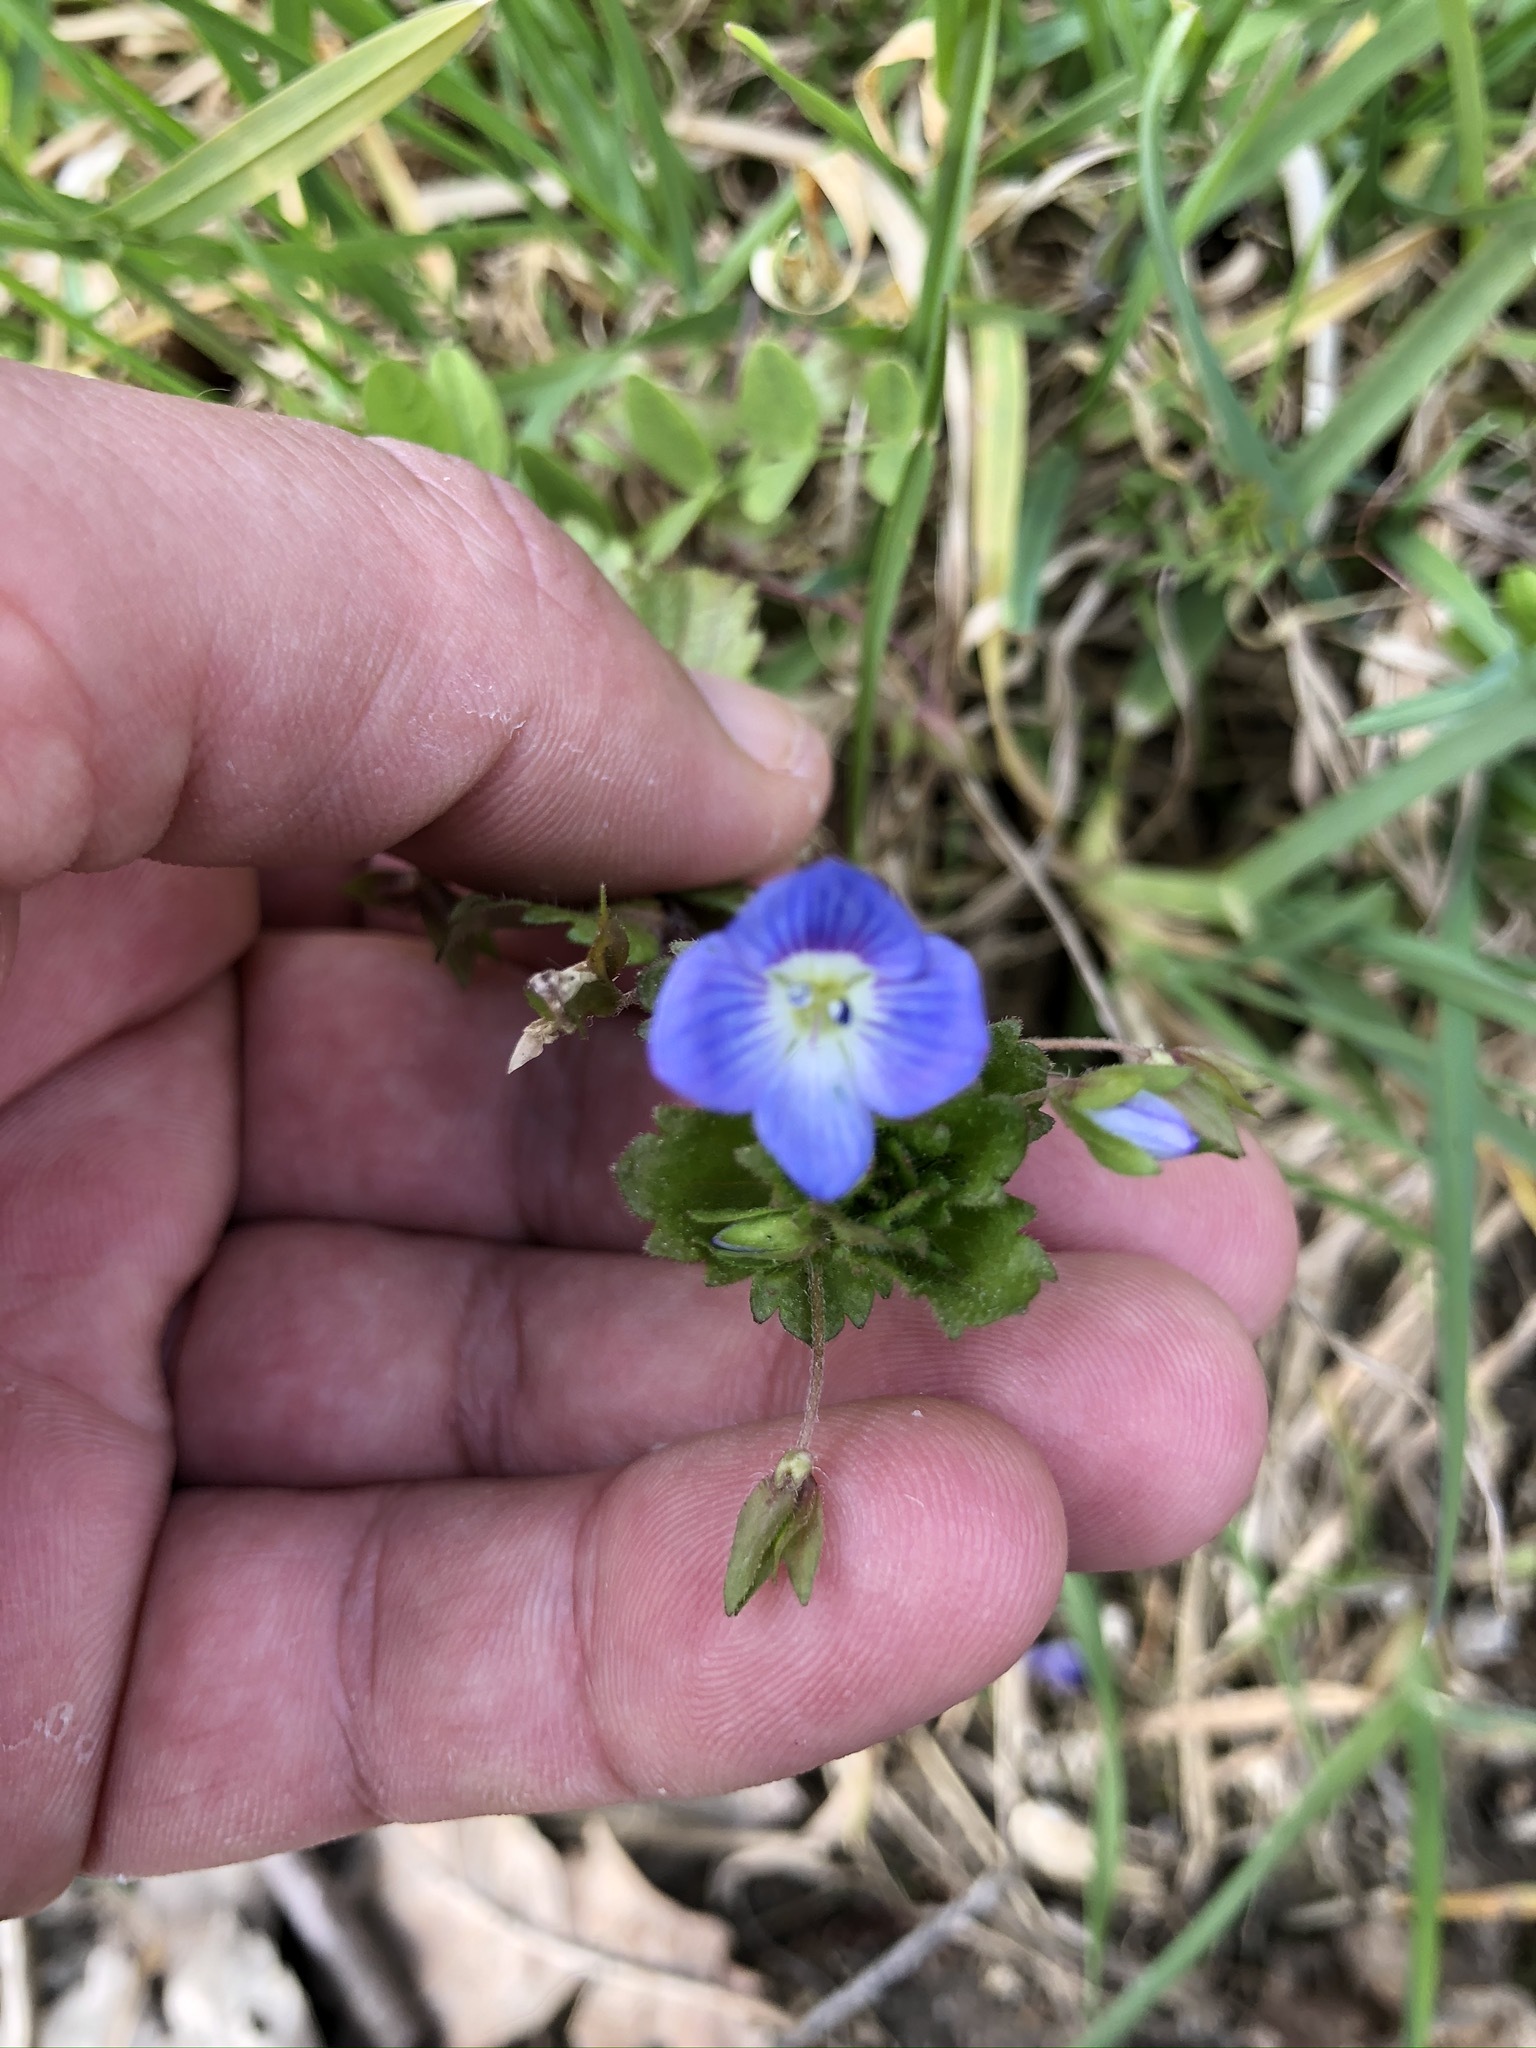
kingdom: Plantae
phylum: Tracheophyta
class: Magnoliopsida
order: Lamiales
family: Plantaginaceae
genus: Veronica
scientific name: Veronica persica
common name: Common field-speedwell
